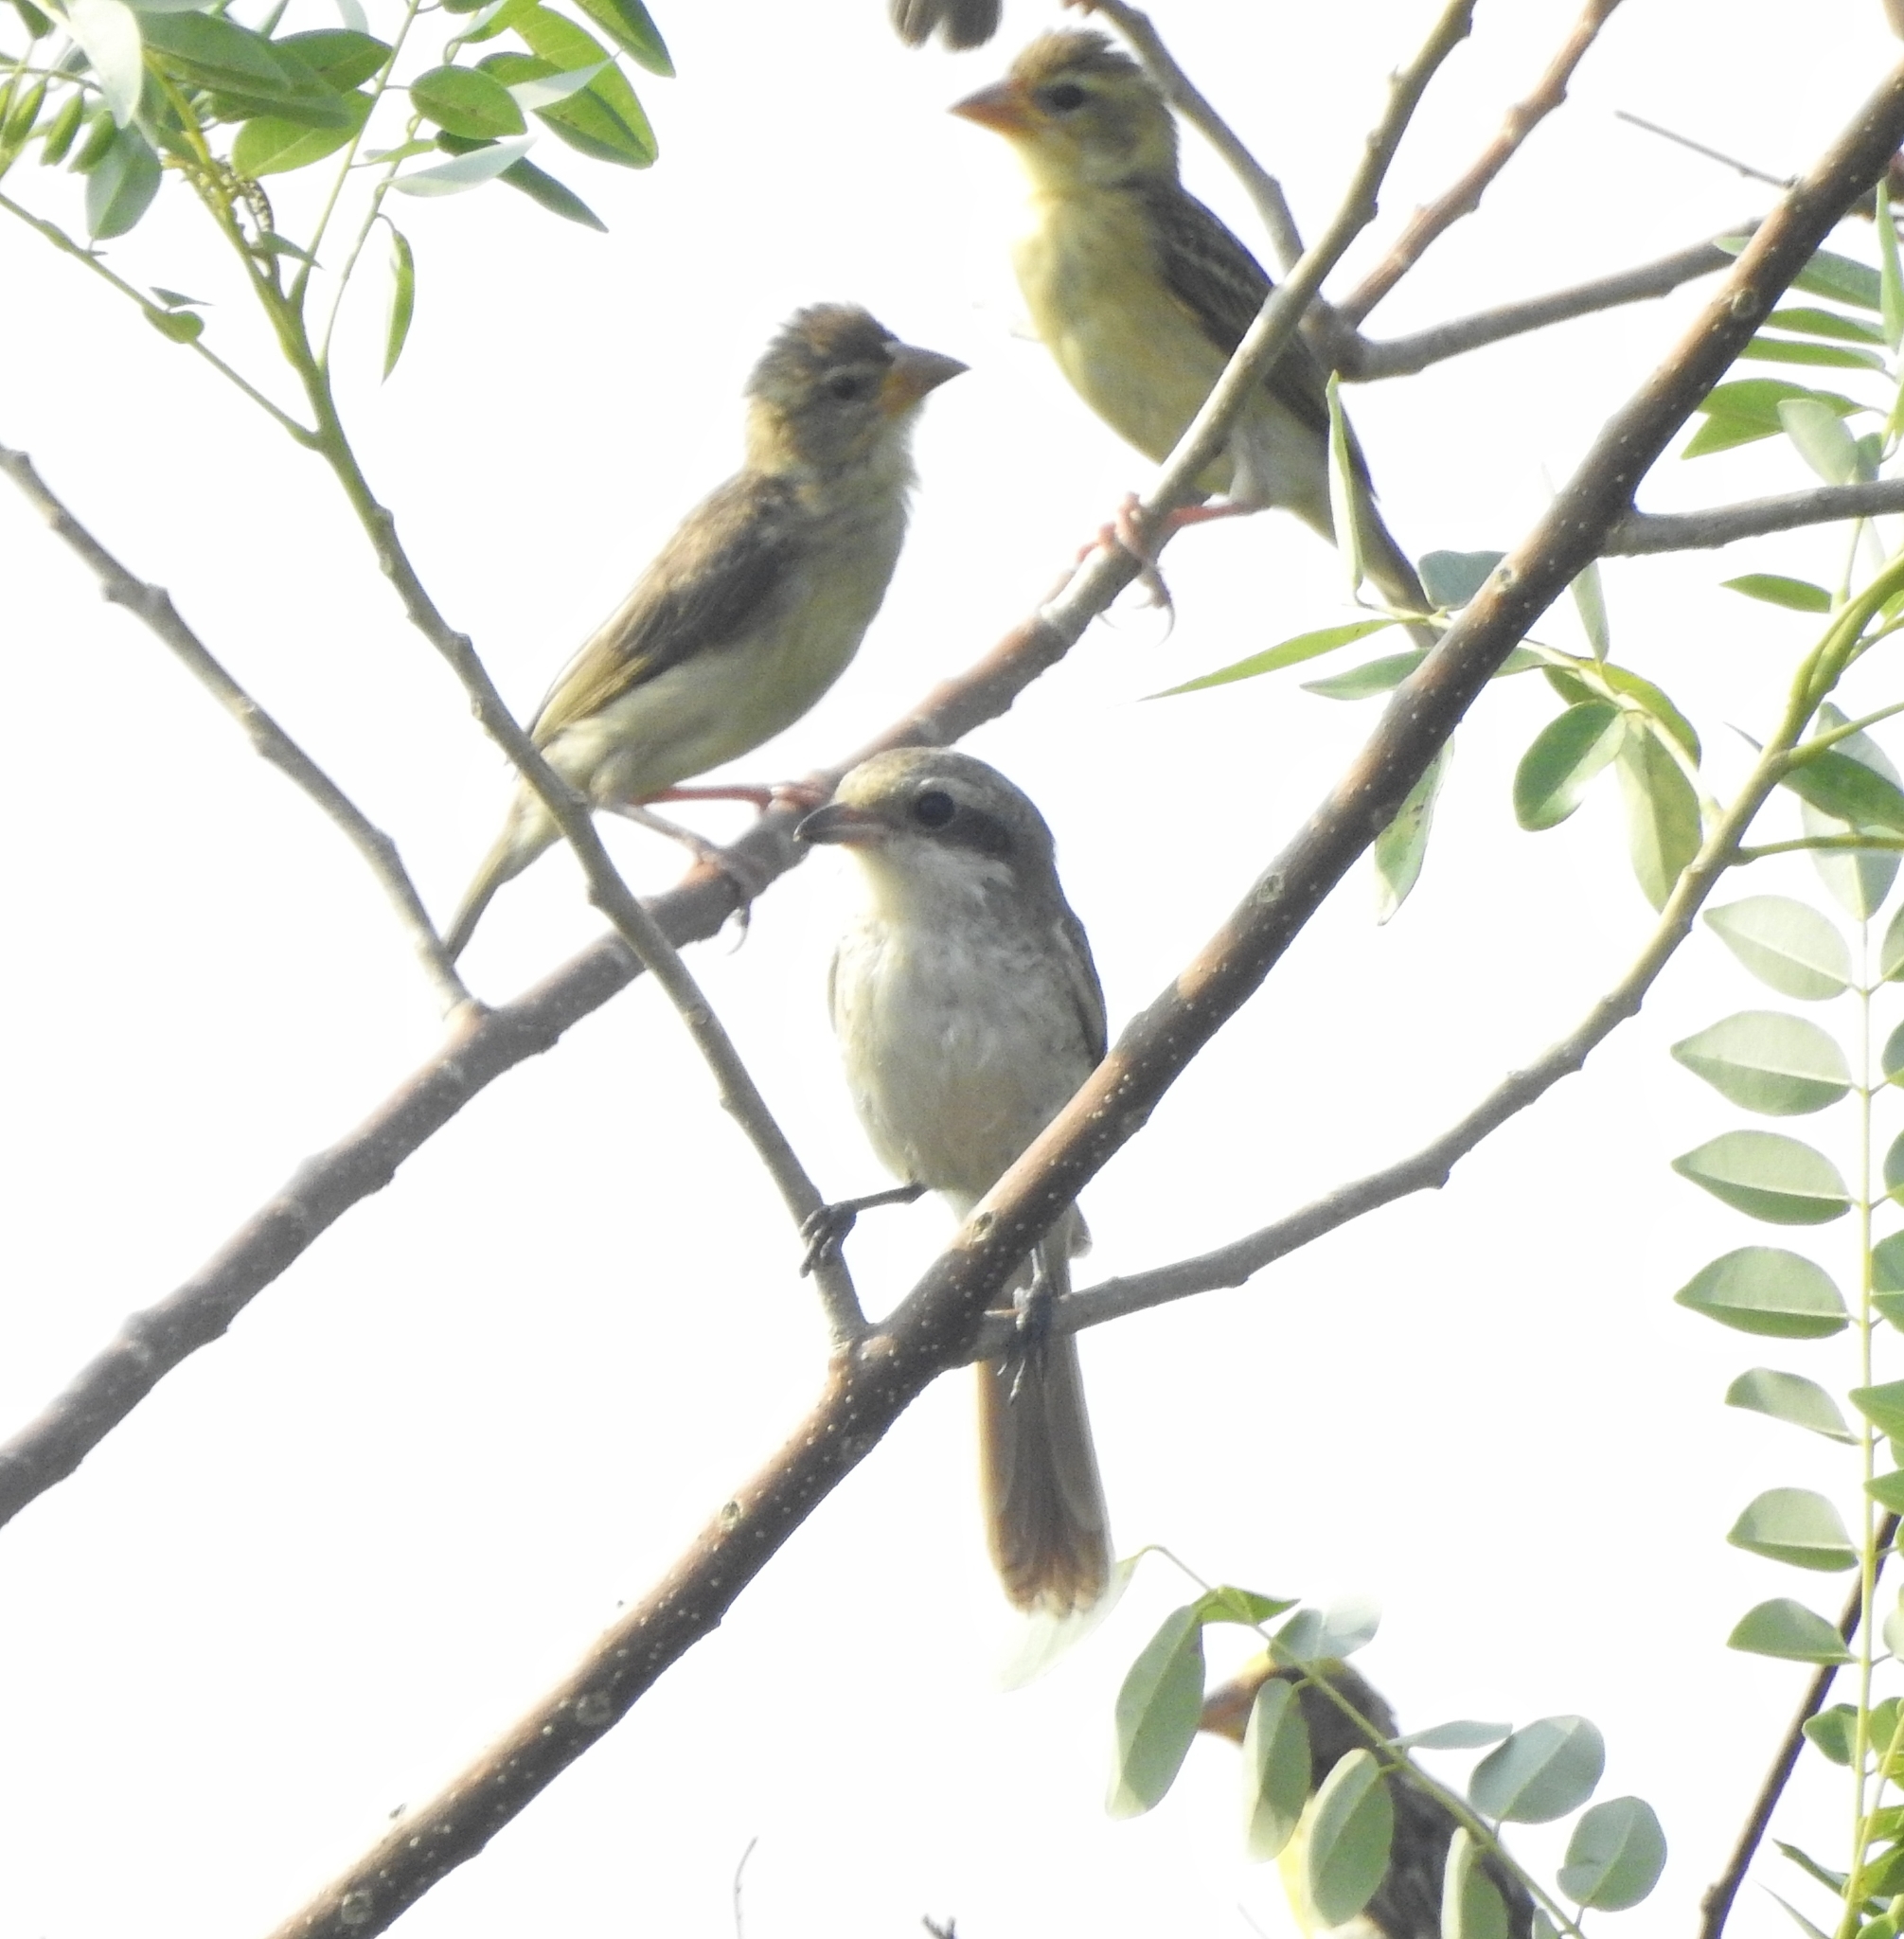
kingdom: Animalia
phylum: Chordata
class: Aves
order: Passeriformes
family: Laniidae
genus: Lanius
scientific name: Lanius vittatus
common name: Bay-backed shrike
